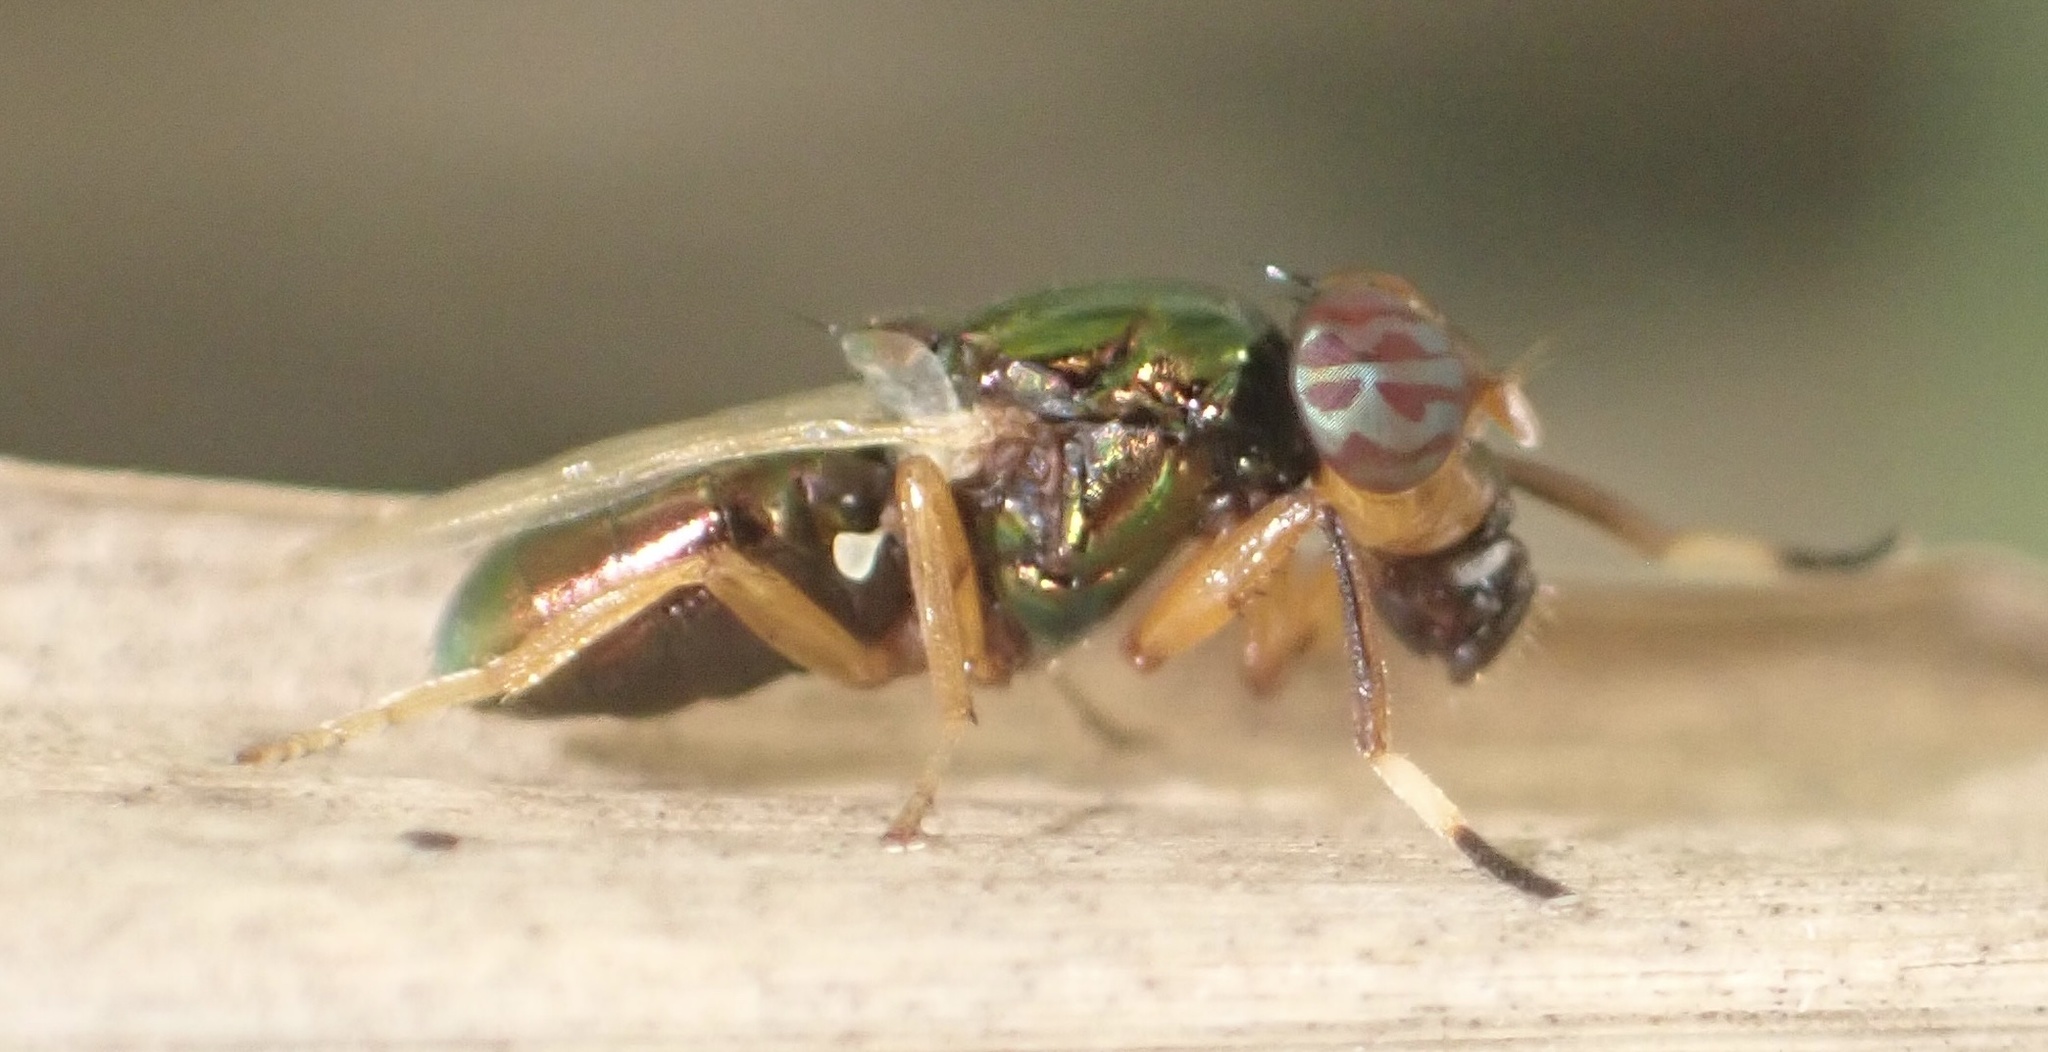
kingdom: Animalia
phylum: Arthropoda
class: Insecta
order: Diptera
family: Ulidiidae
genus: Physiphora
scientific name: Physiphora clausa
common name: Picture-winged fly
